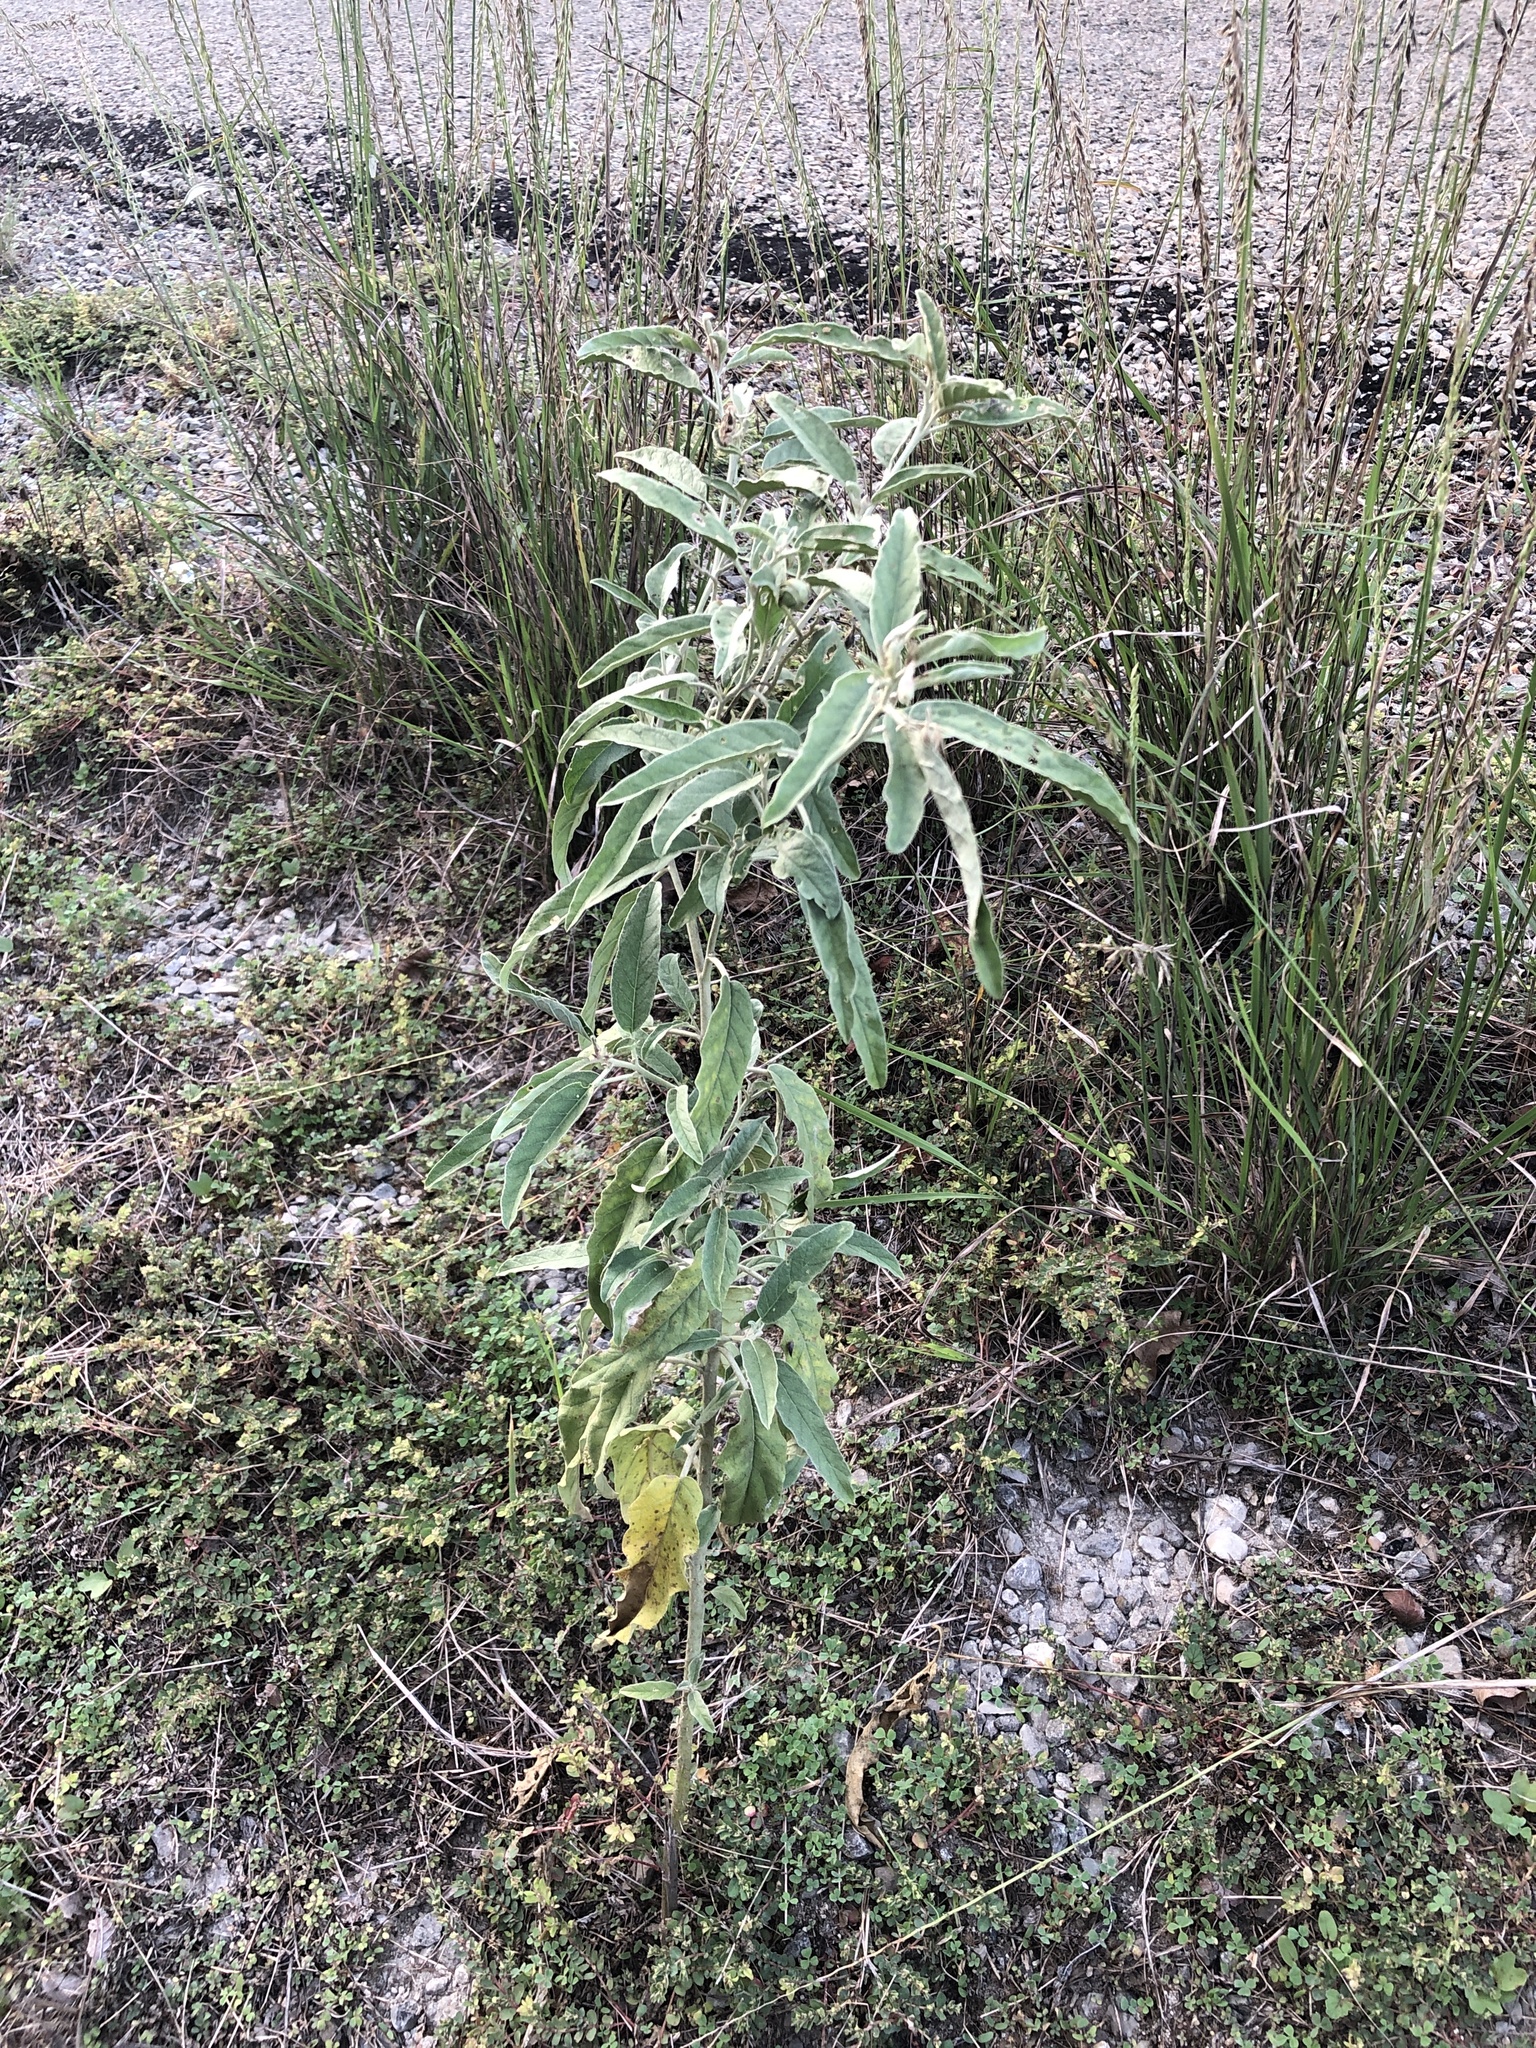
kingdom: Plantae
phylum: Tracheophyta
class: Magnoliopsida
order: Solanales
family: Solanaceae
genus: Solanum
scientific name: Solanum elaeagnifolium
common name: Silverleaf nightshade
